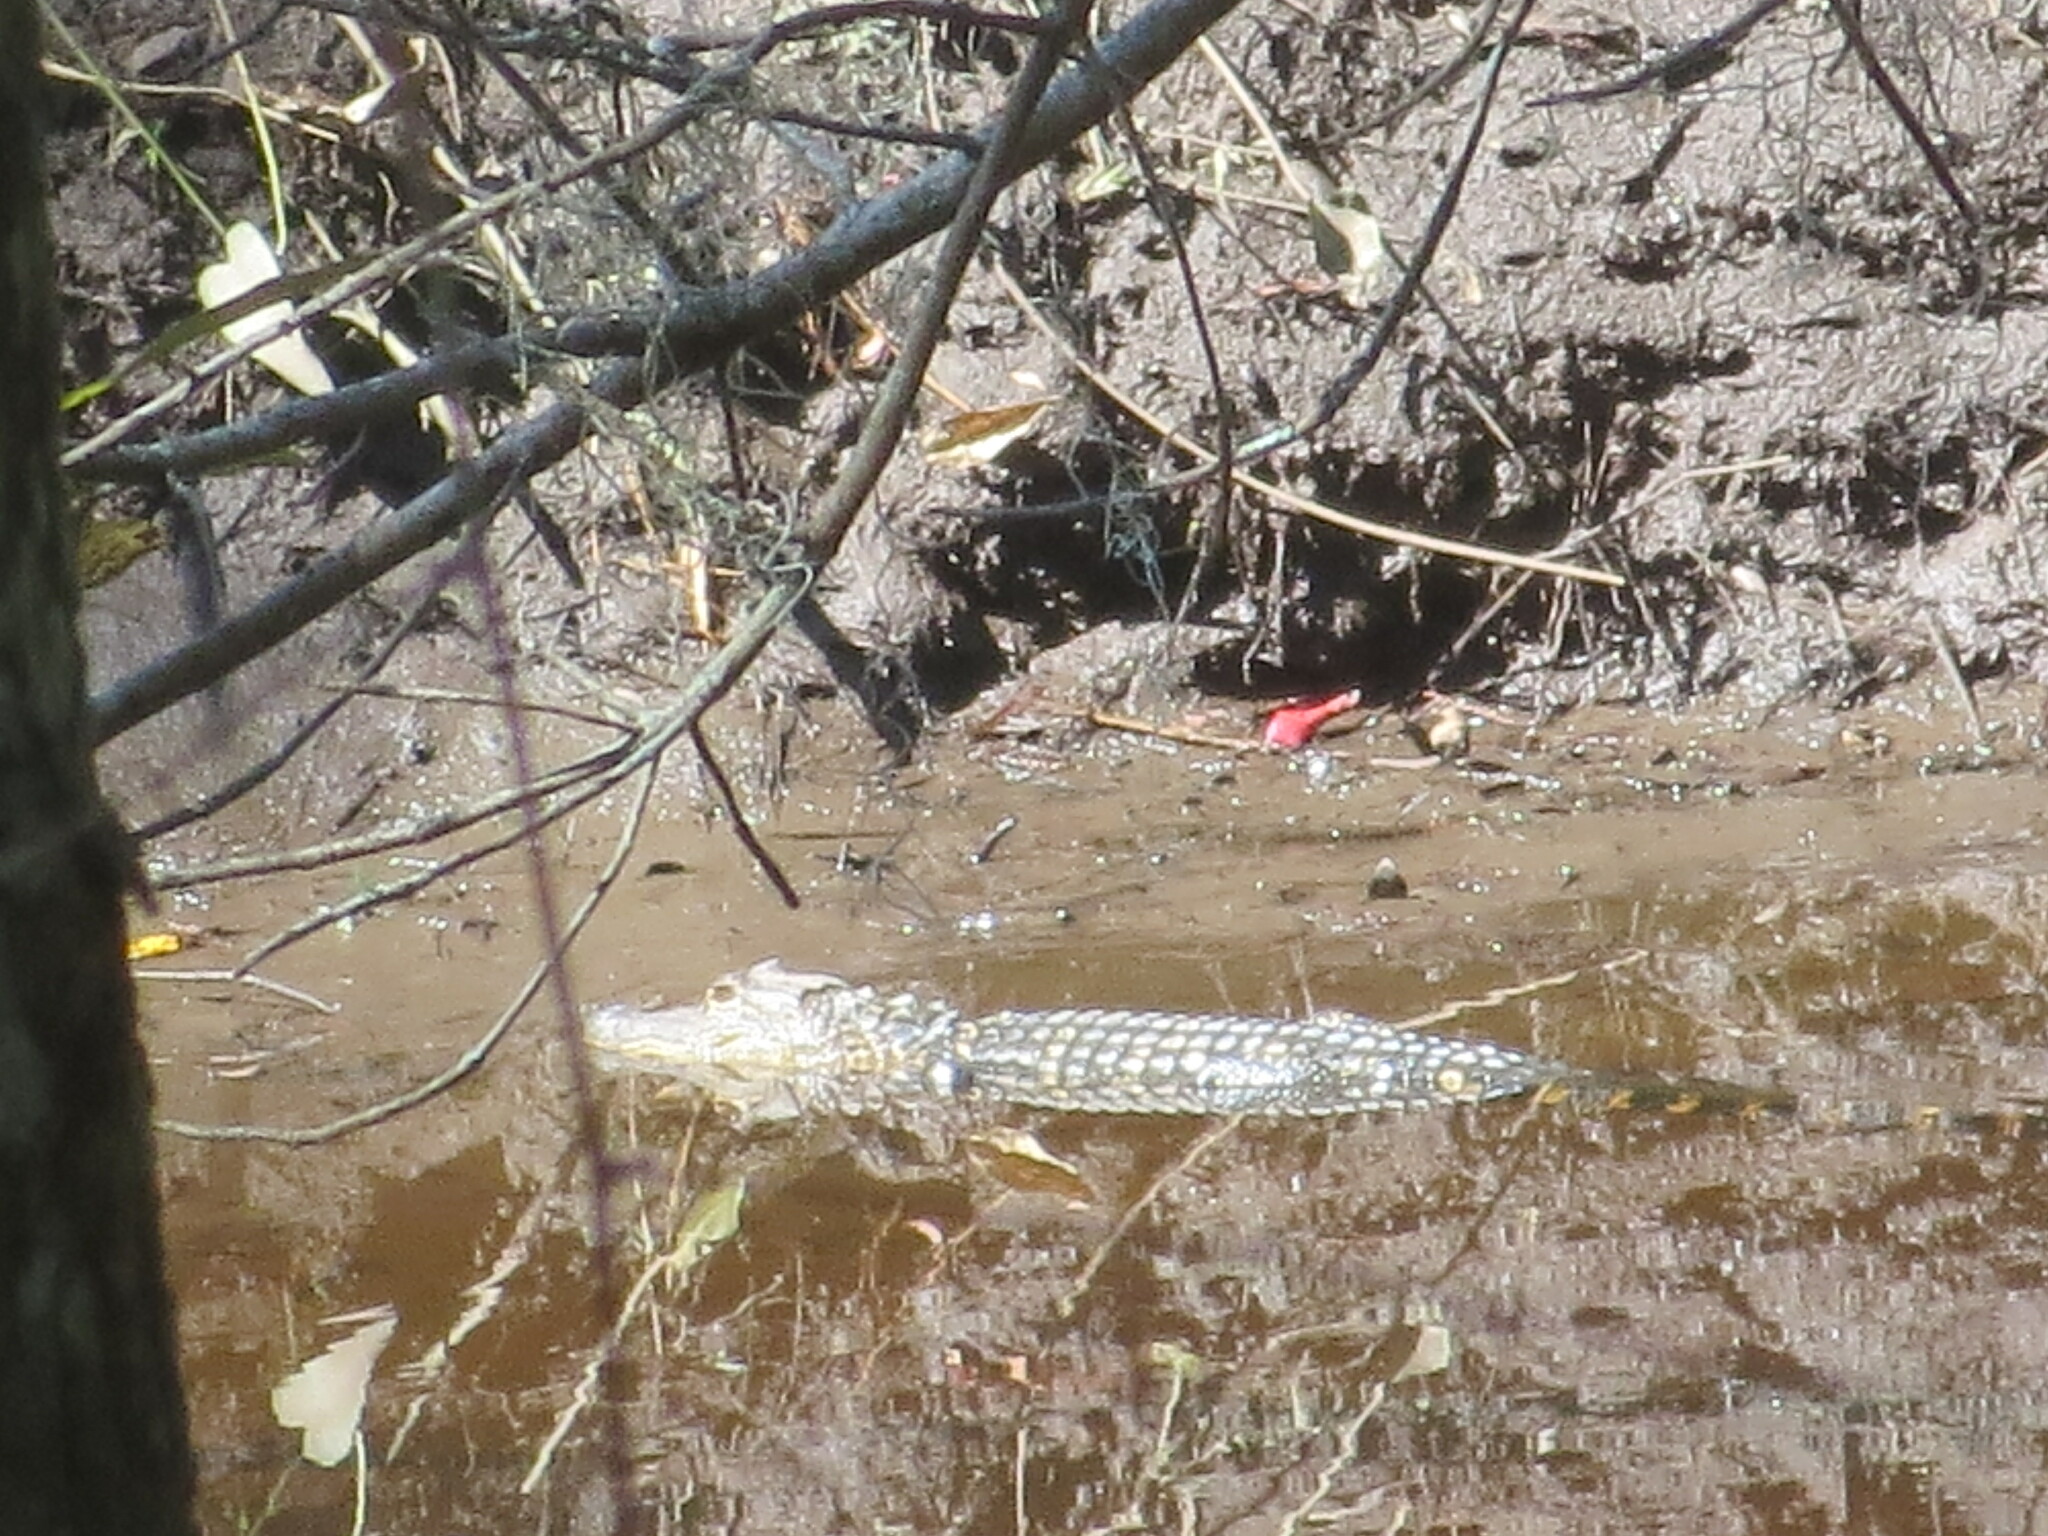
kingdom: Animalia
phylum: Chordata
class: Crocodylia
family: Alligatoridae
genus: Alligator
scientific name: Alligator mississippiensis
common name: American alligator
